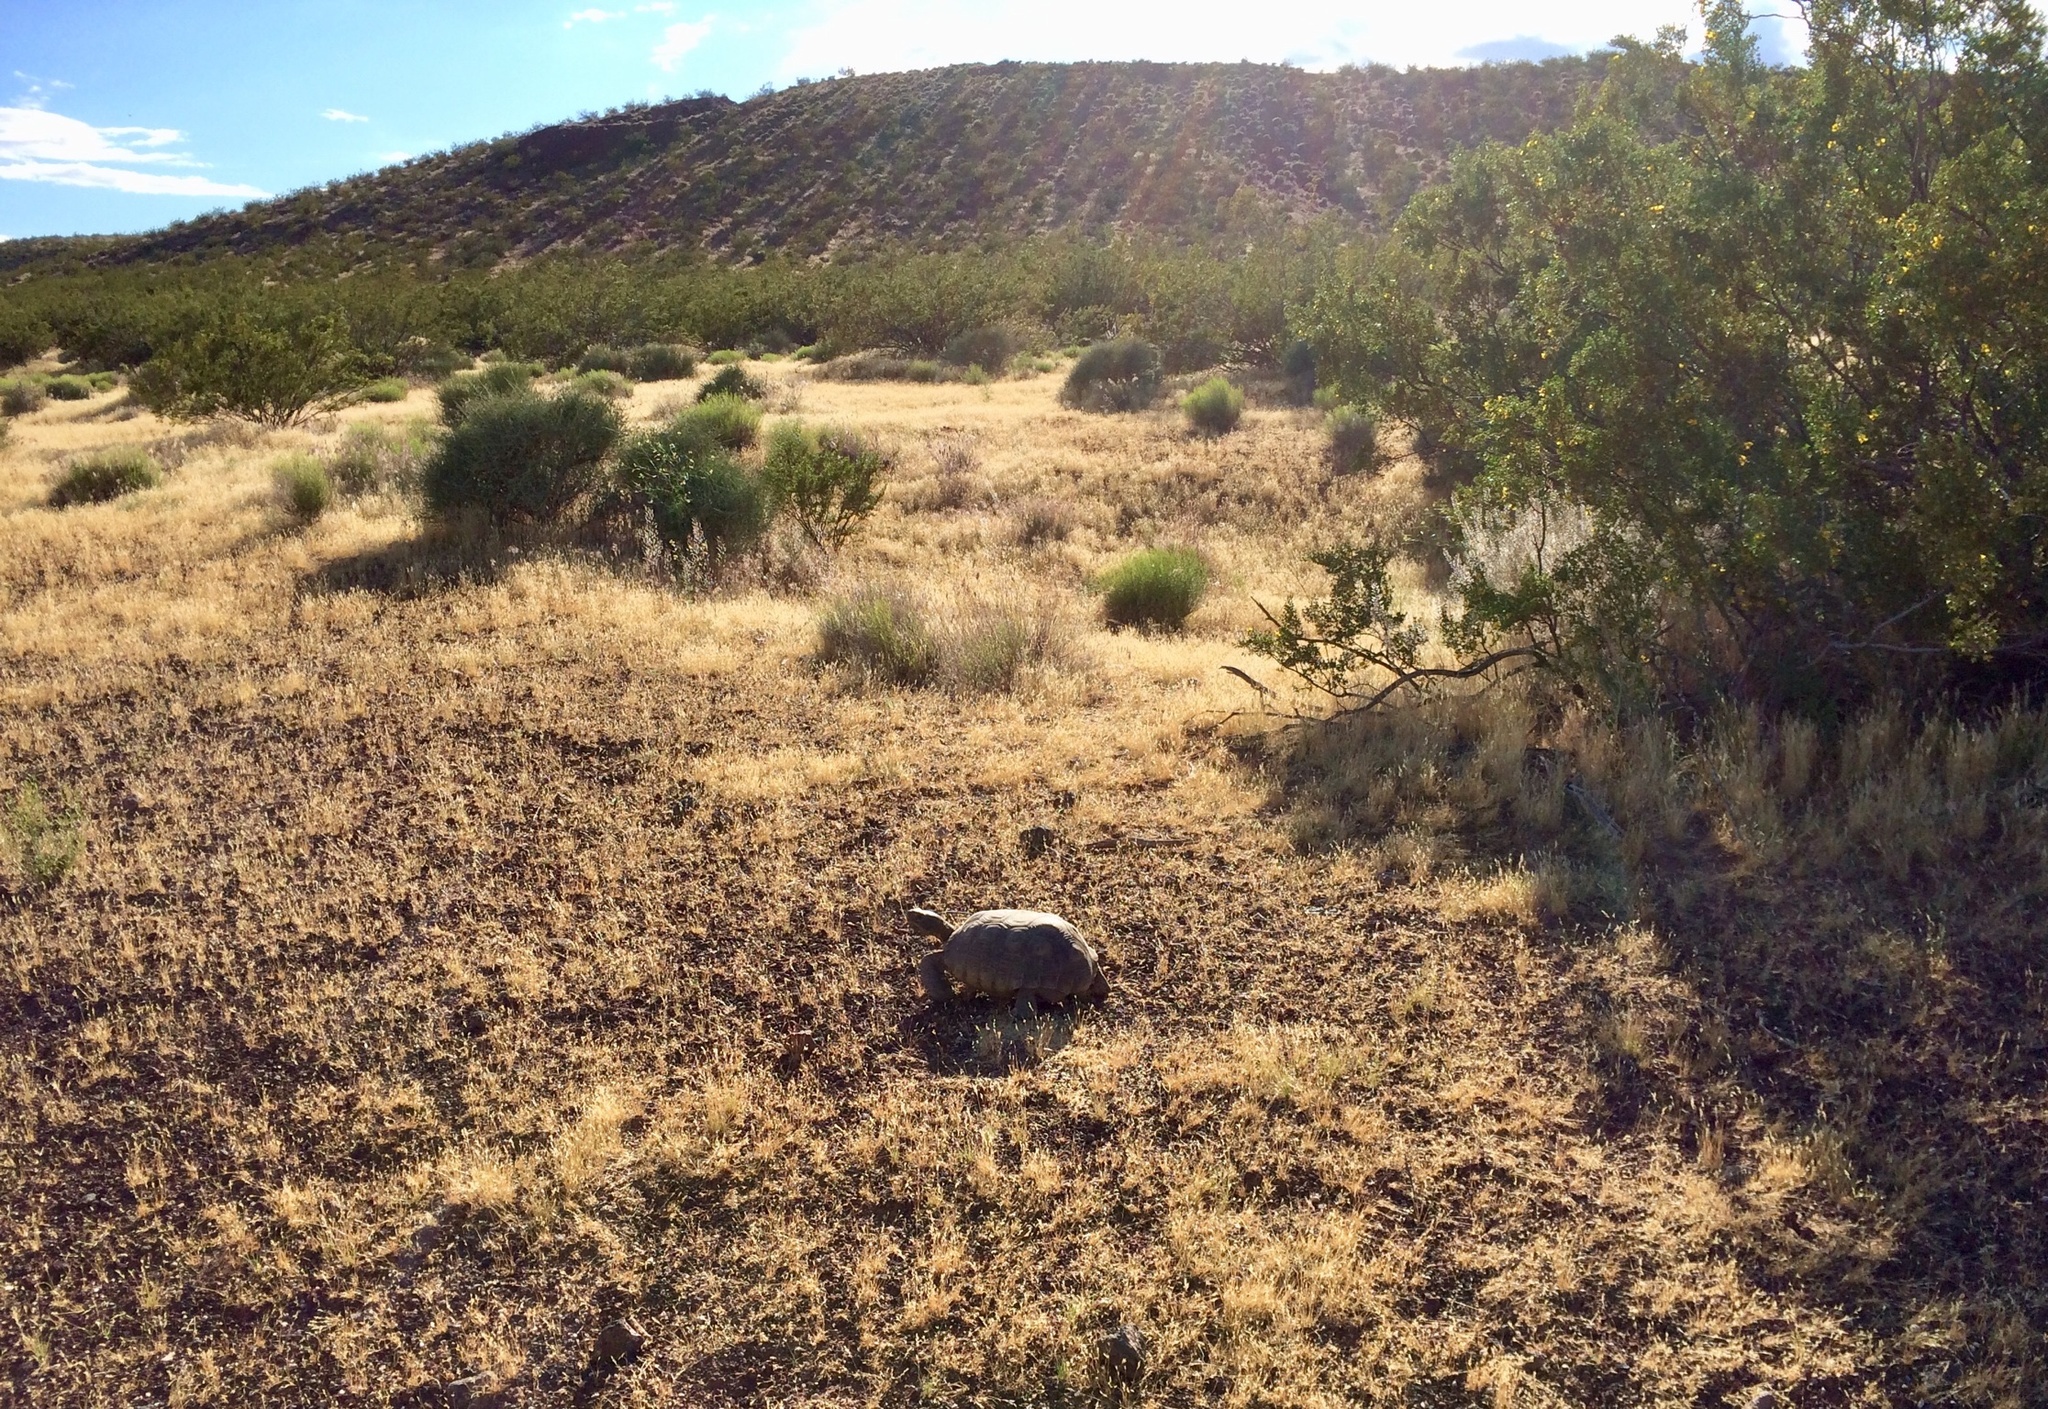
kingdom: Animalia
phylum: Chordata
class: Testudines
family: Testudinidae
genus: Gopherus
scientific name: Gopherus agassizii
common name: Mojave desert tortoise
